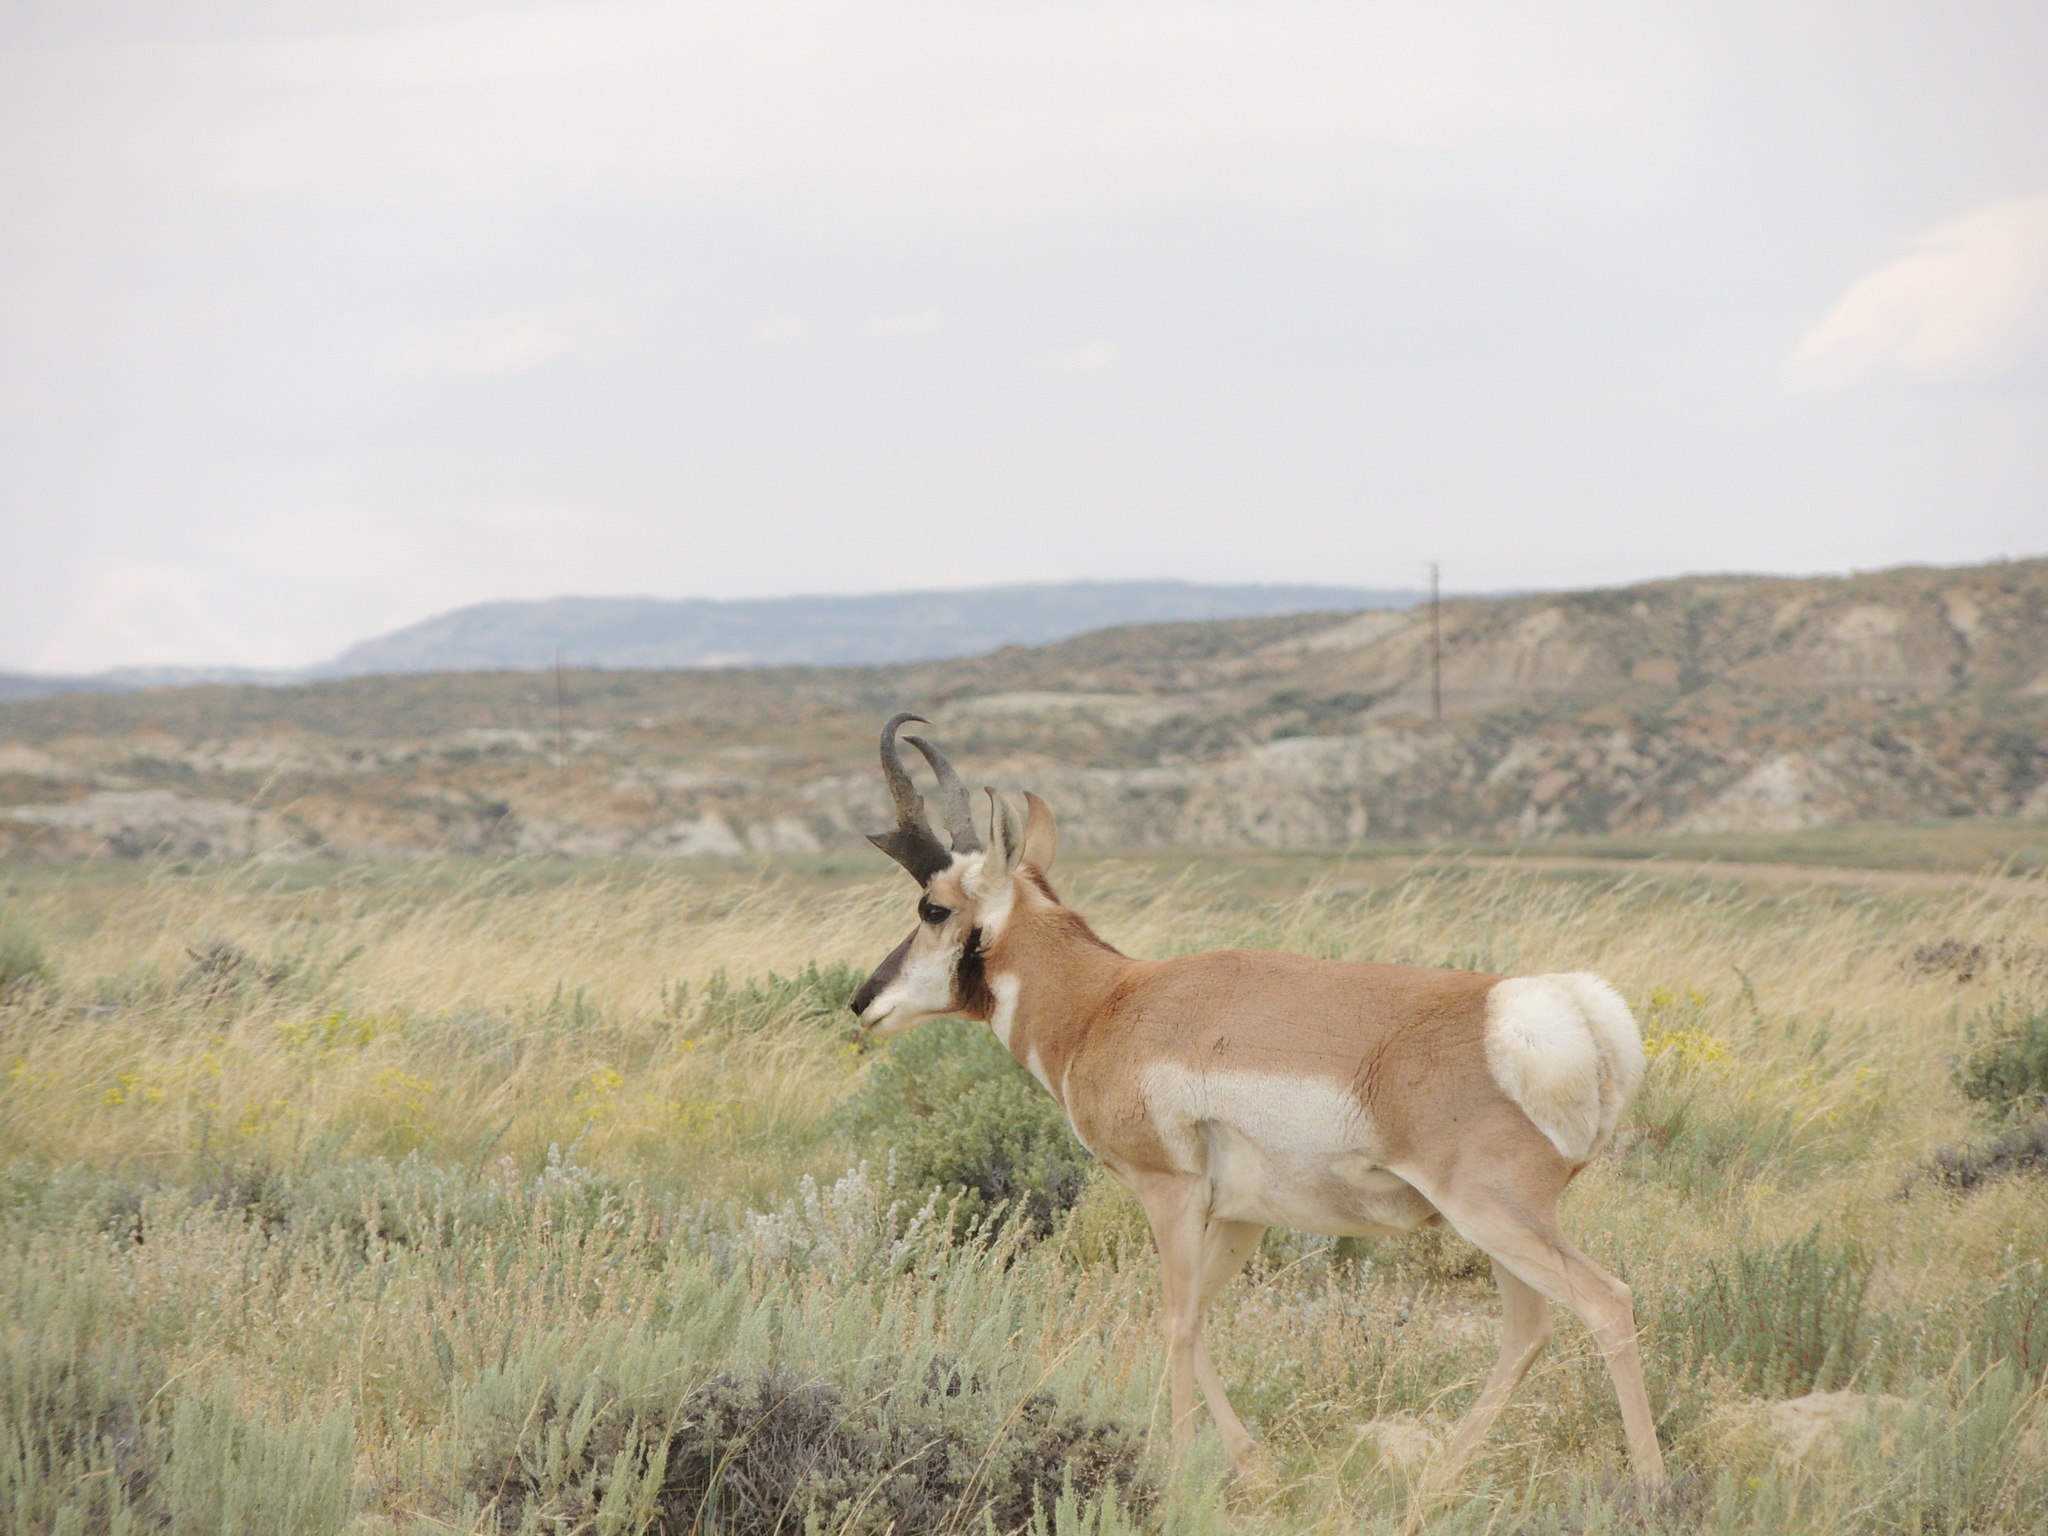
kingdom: Animalia
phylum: Chordata
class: Mammalia
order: Artiodactyla
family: Antilocapridae
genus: Antilocapra
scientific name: Antilocapra americana
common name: Pronghorn
